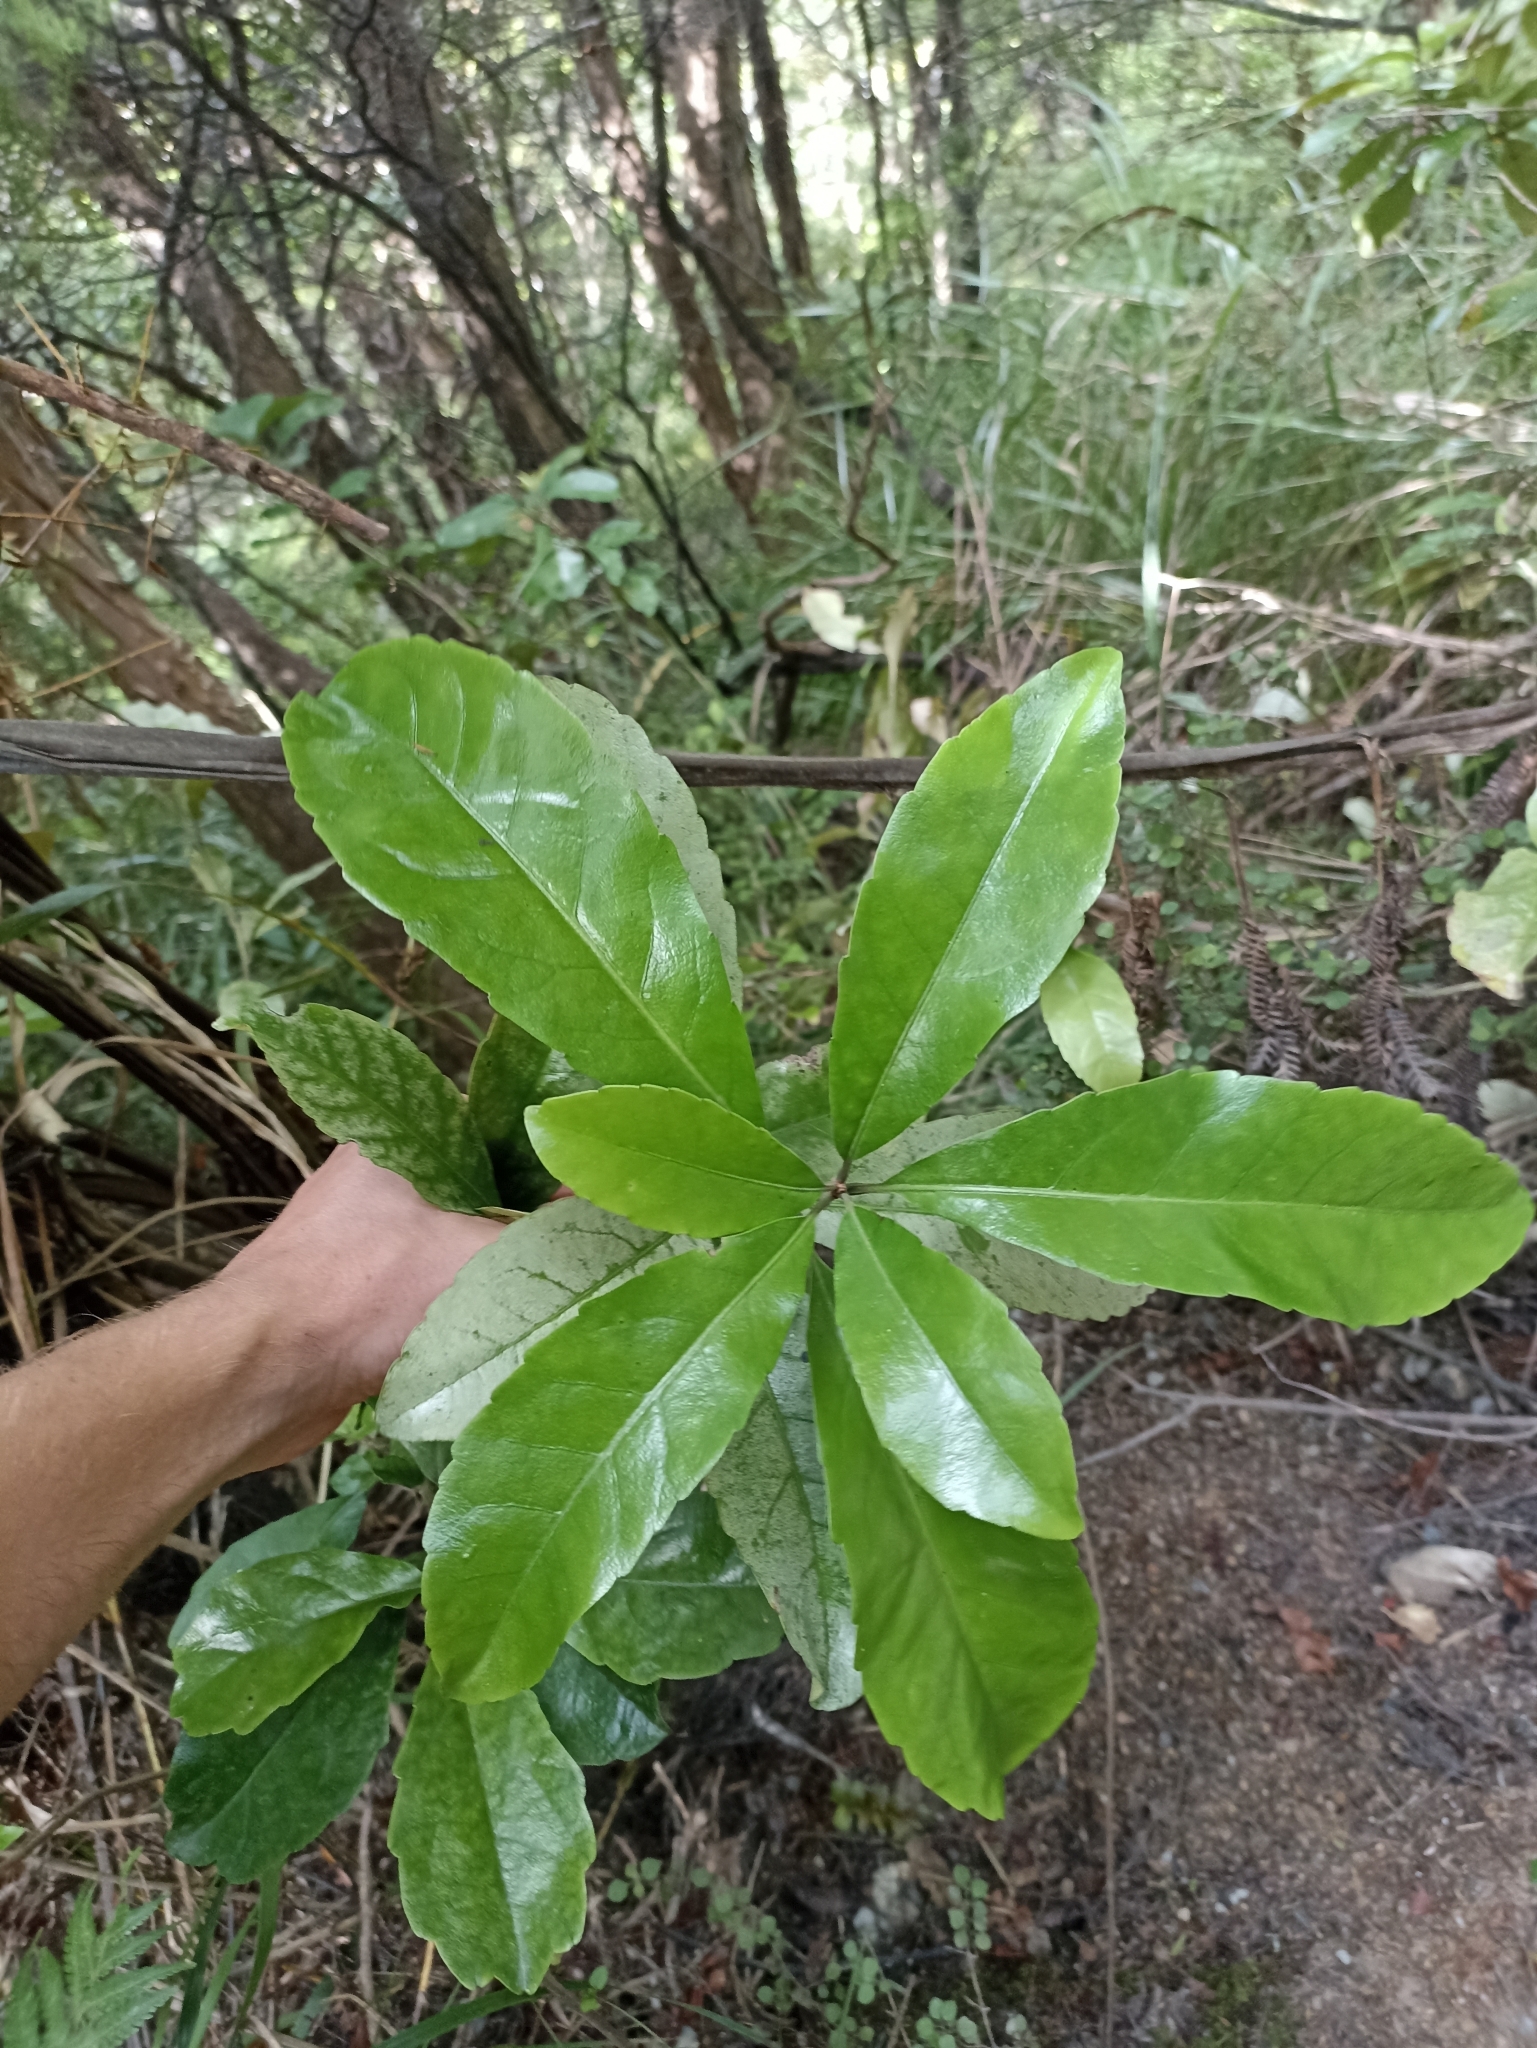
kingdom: Plantae
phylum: Tracheophyta
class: Magnoliopsida
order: Asterales
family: Alseuosmiaceae
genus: Alseuosmia
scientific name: Alseuosmia macrophylla
